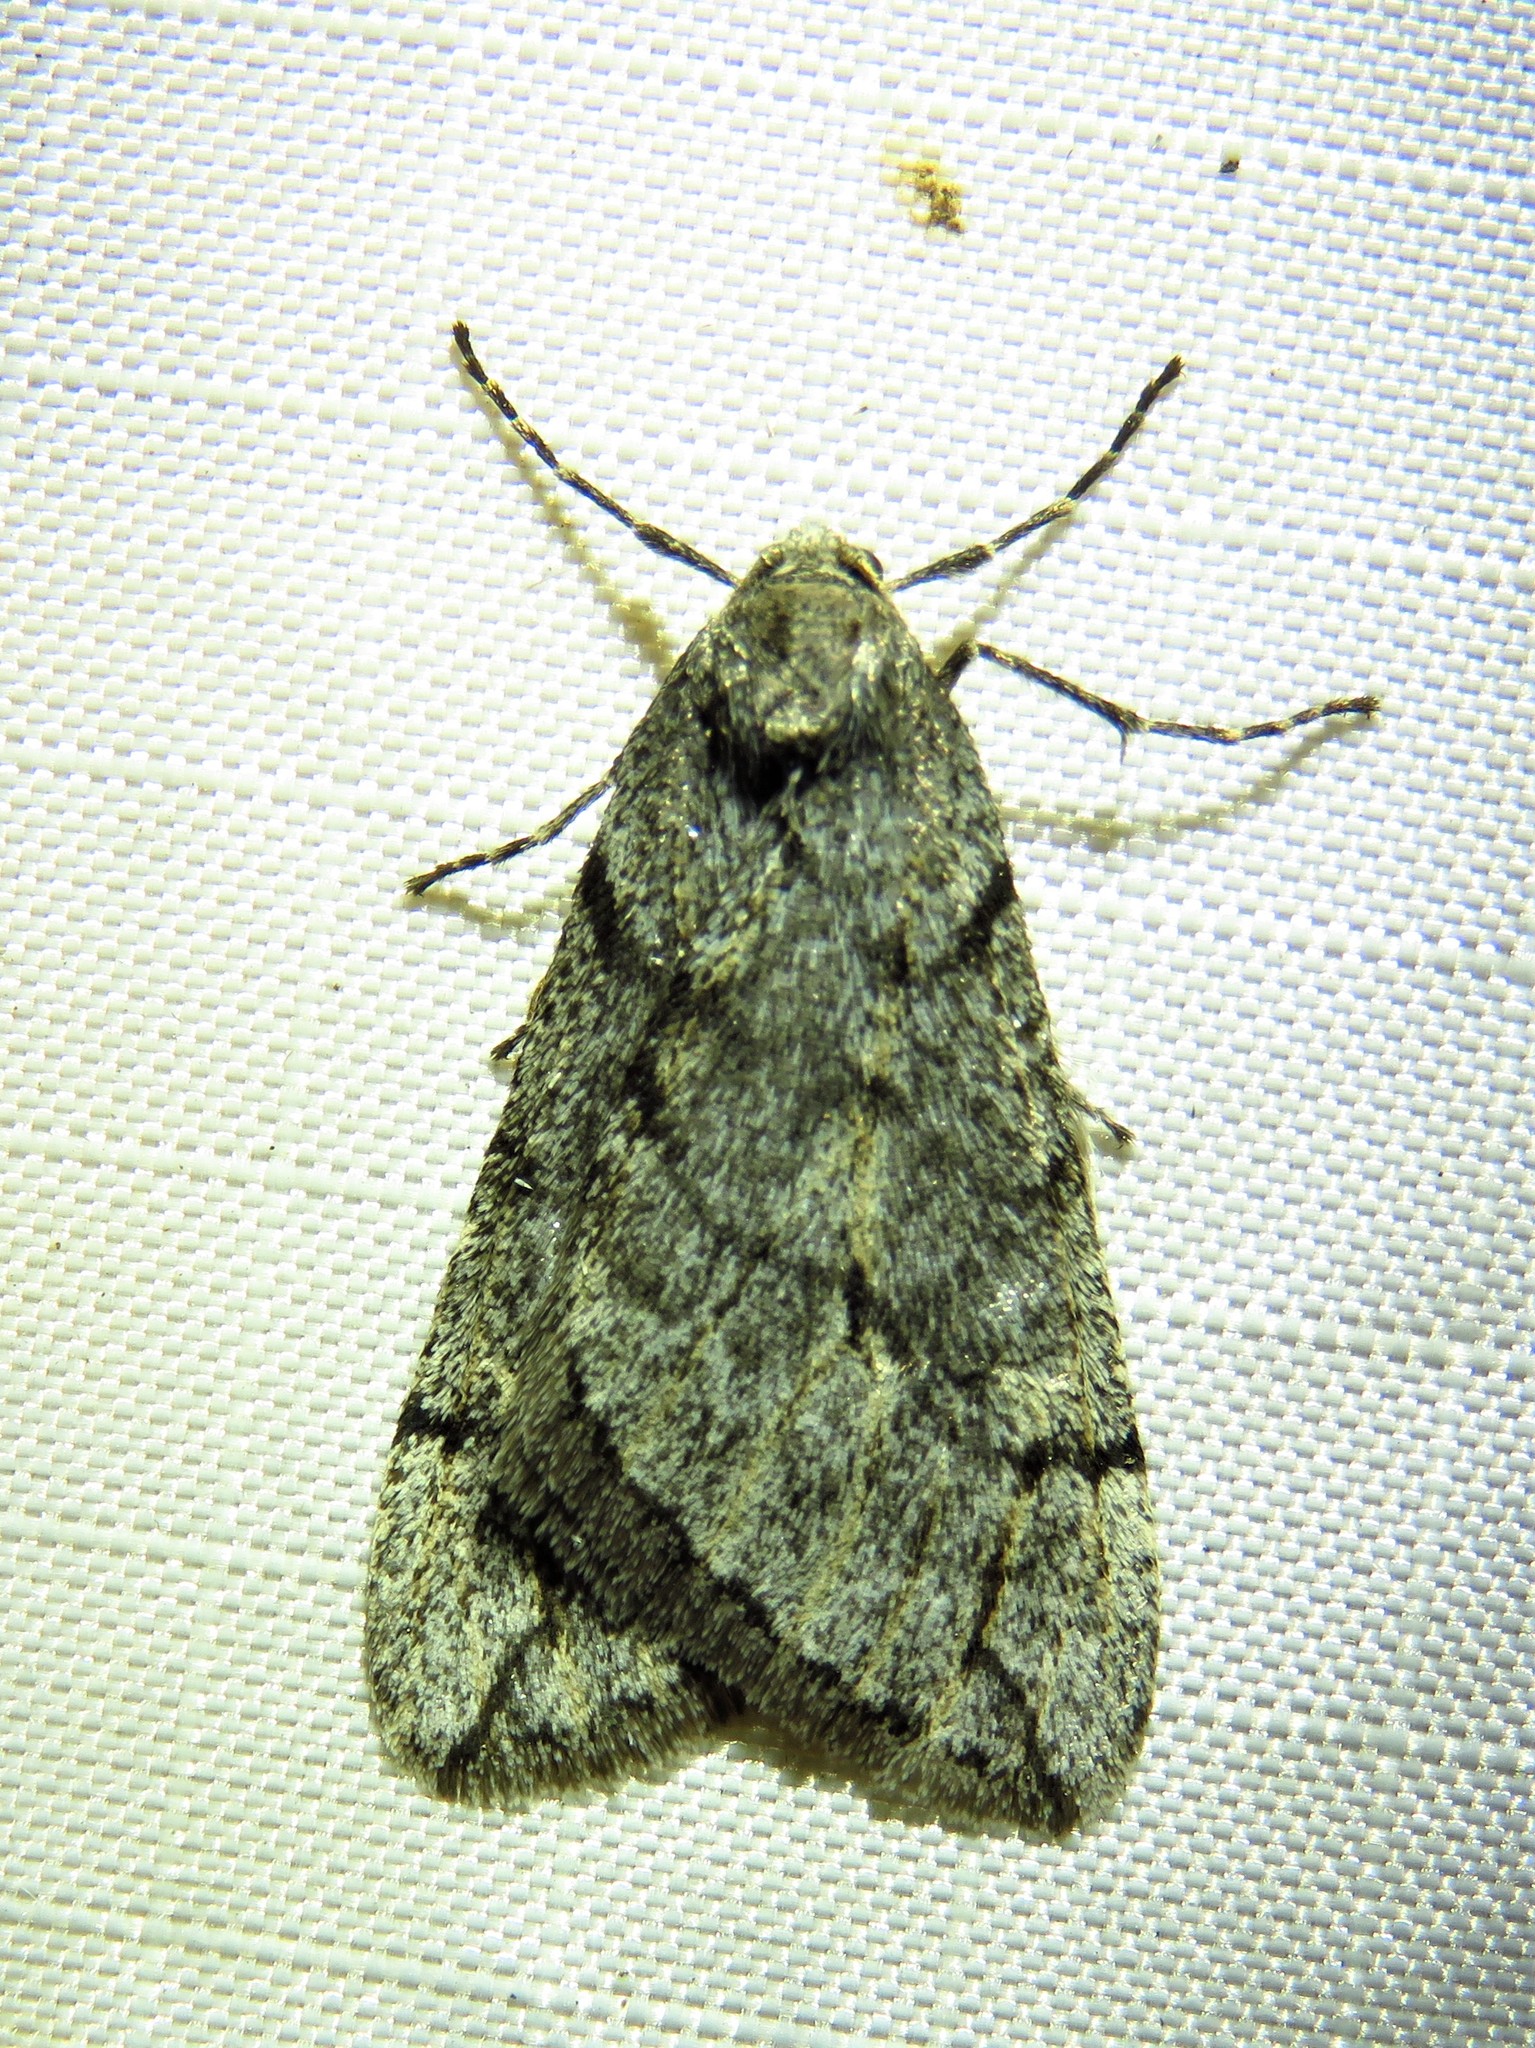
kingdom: Animalia
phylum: Arthropoda
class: Insecta
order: Lepidoptera
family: Geometridae
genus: Paleacrita
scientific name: Paleacrita vernata
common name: Spring cankerworm
